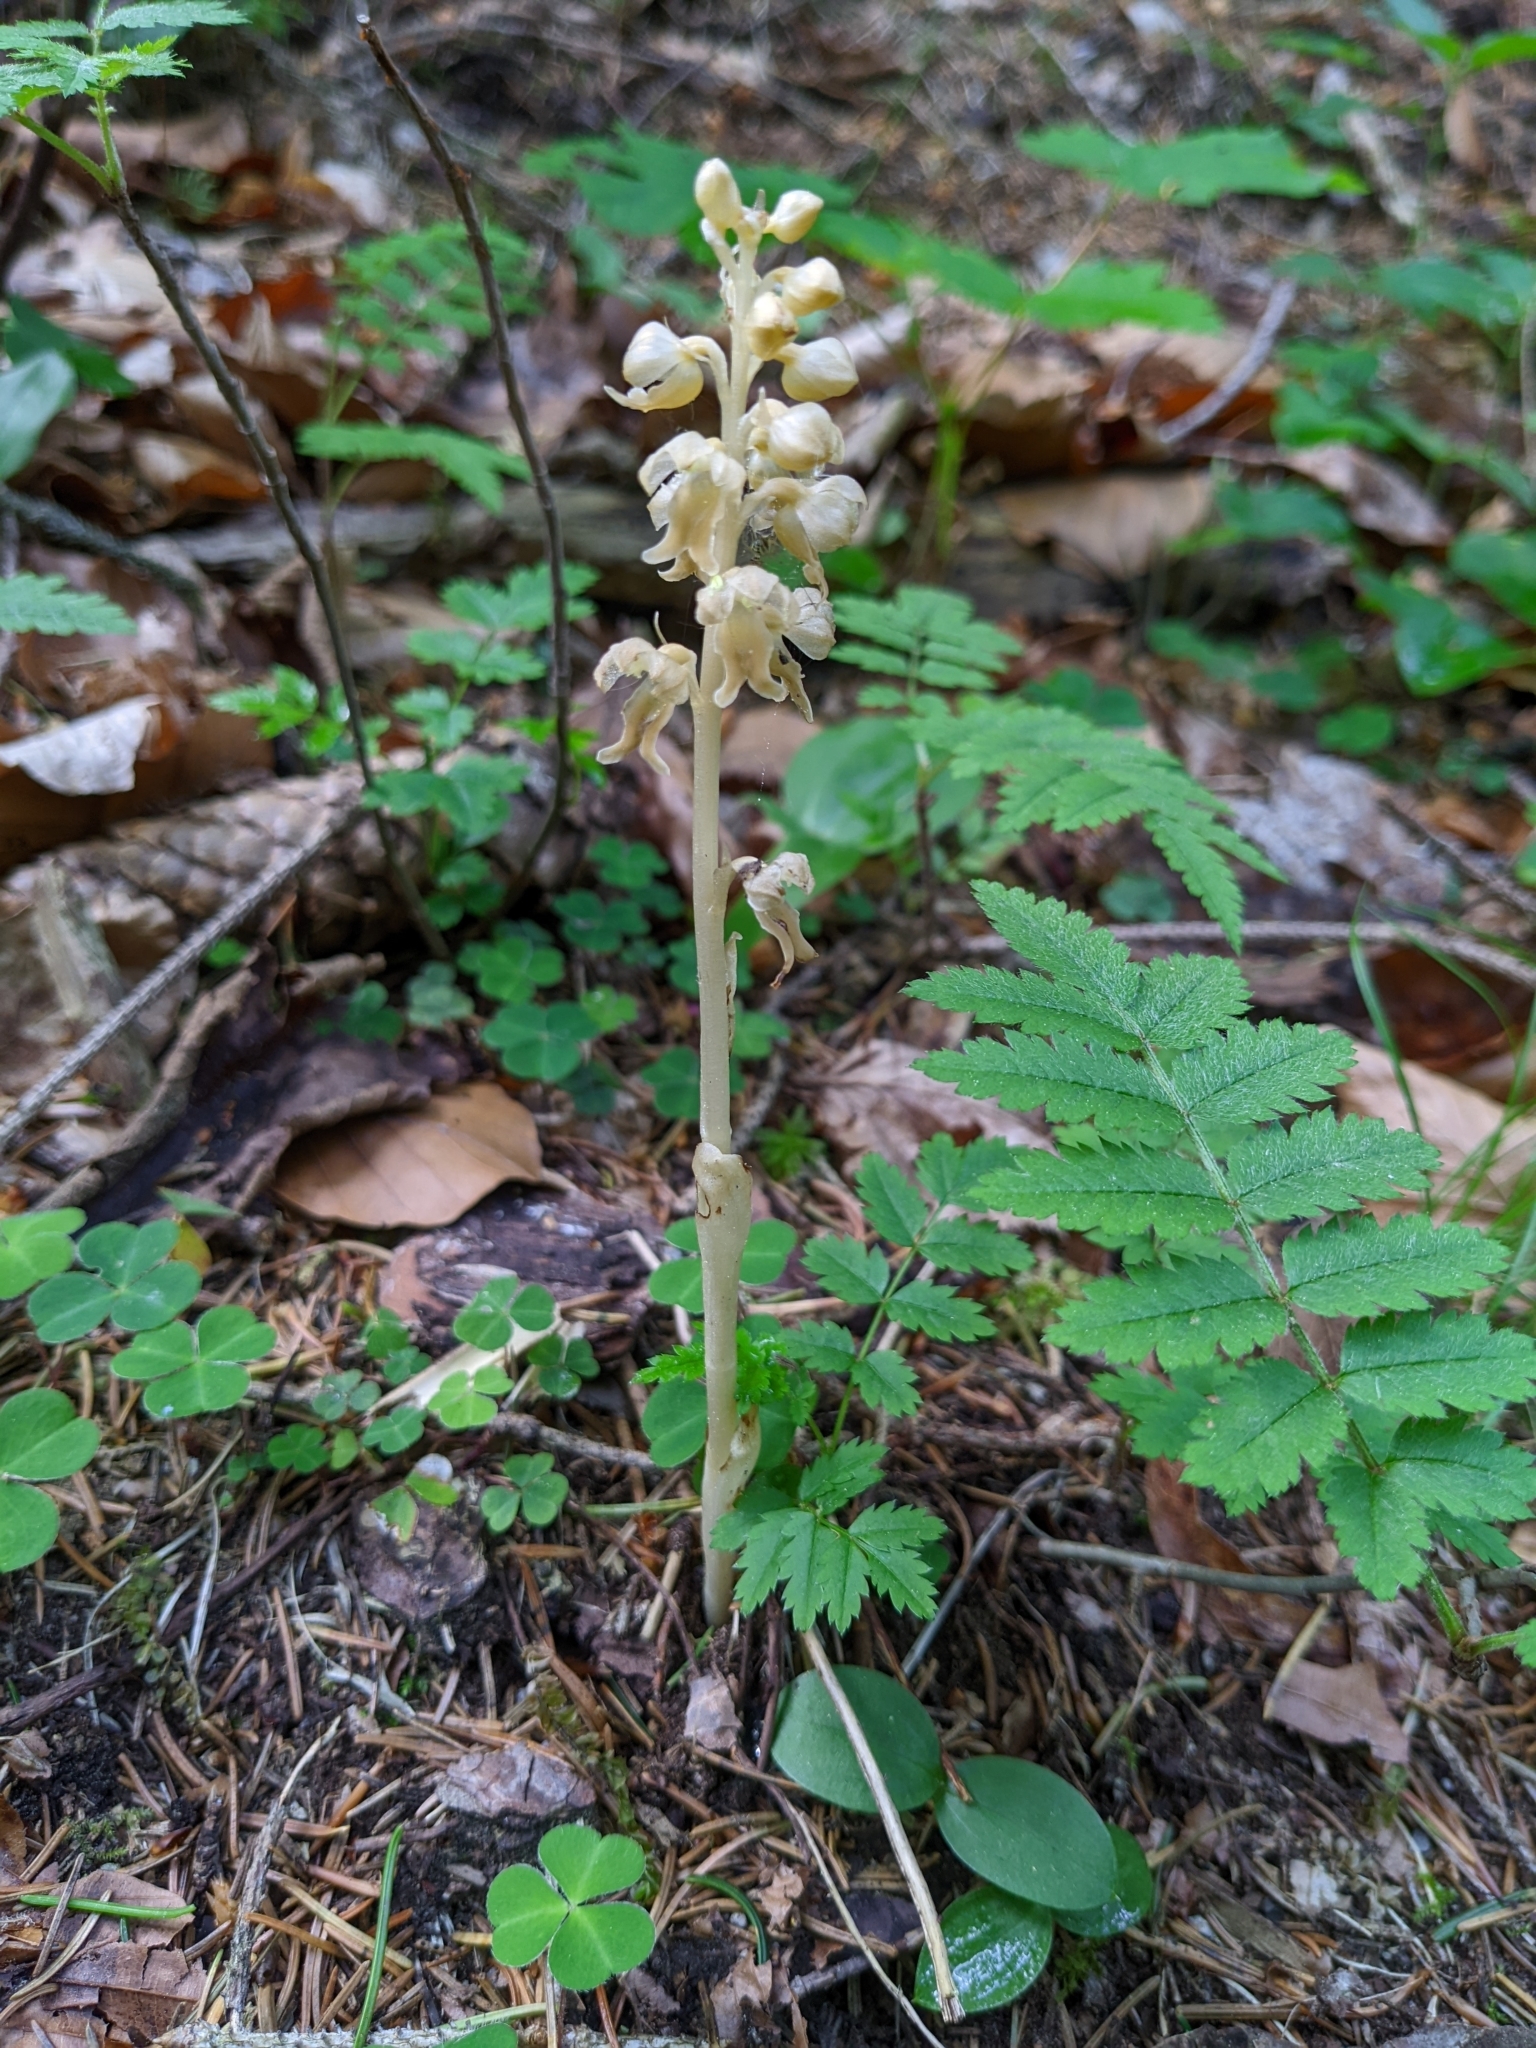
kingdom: Plantae
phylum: Tracheophyta
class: Liliopsida
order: Asparagales
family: Orchidaceae
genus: Neottia
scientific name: Neottia nidus-avis
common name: Bird's-nest orchid
